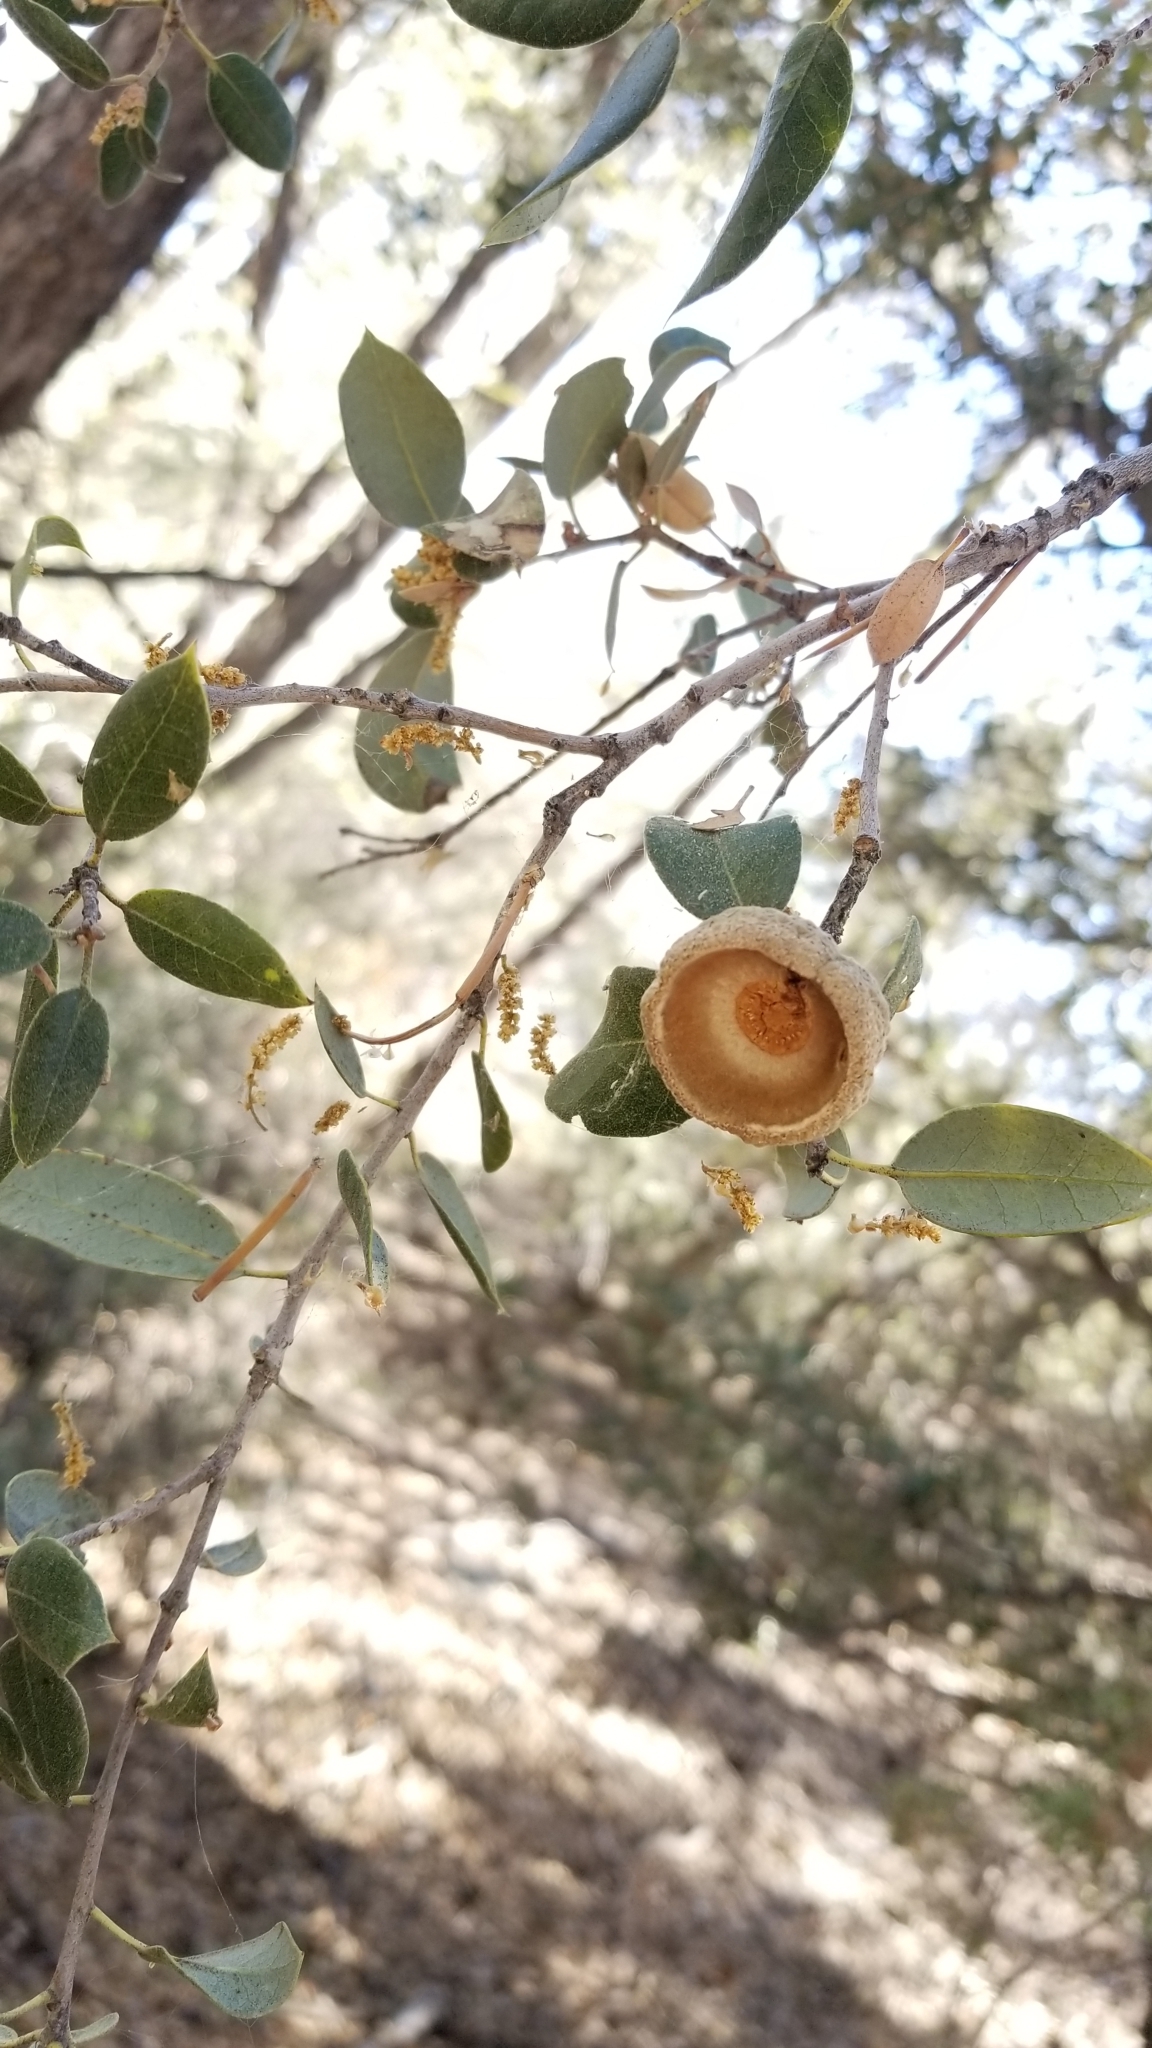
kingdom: Plantae
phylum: Tracheophyta
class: Magnoliopsida
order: Fagales
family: Fagaceae
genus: Quercus
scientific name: Quercus chrysolepis
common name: Canyon live oak
